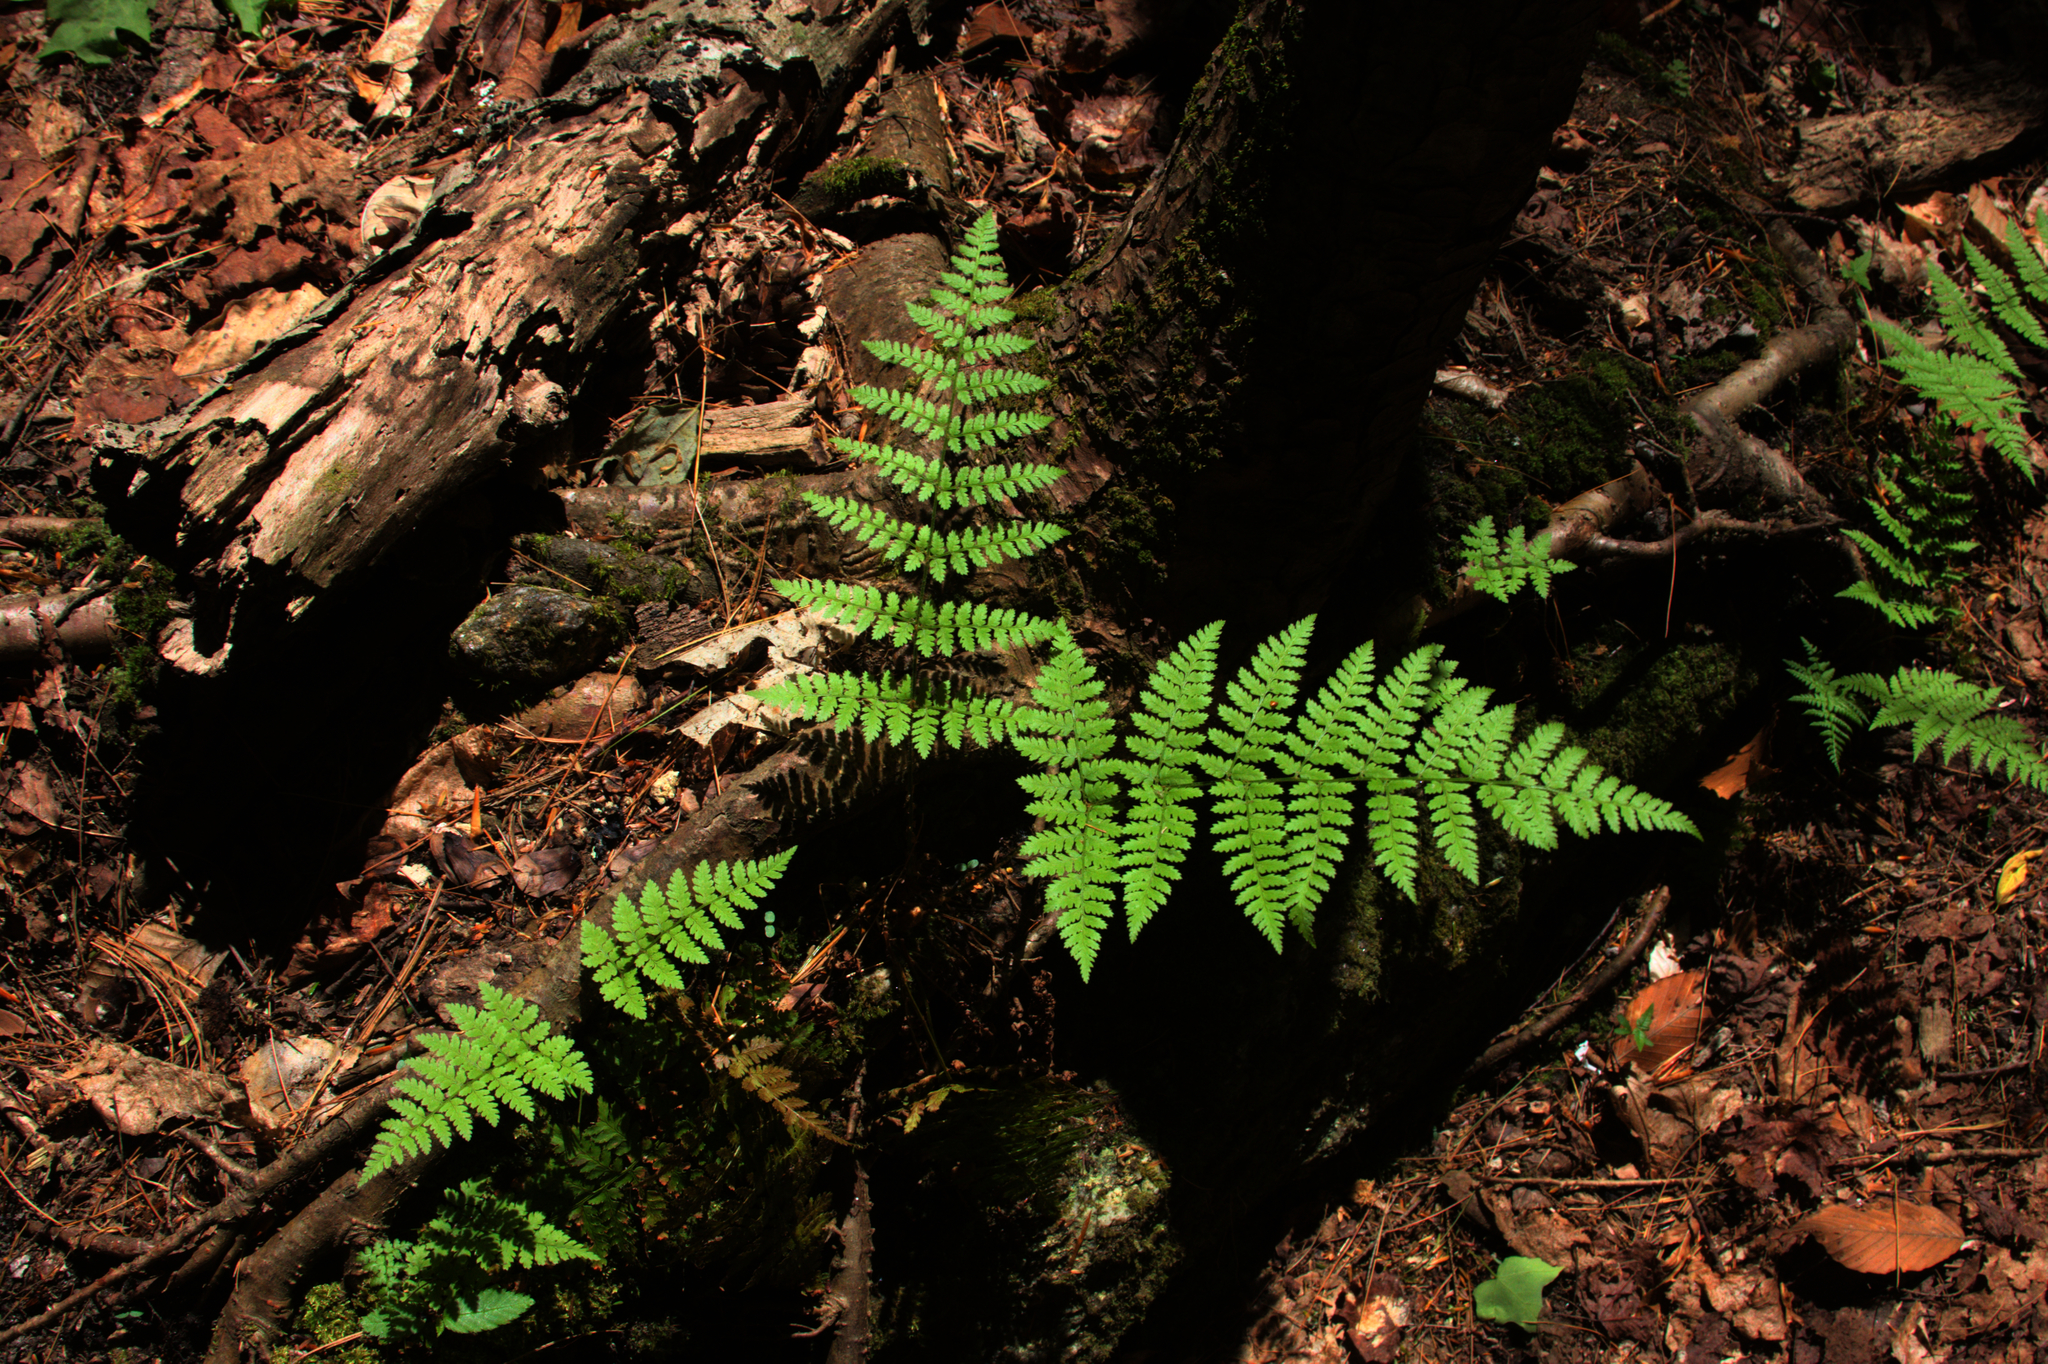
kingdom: Plantae
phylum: Tracheophyta
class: Polypodiopsida
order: Polypodiales
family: Dryopteridaceae
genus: Dryopteris
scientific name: Dryopteris intermedia
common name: Evergreen wood fern
